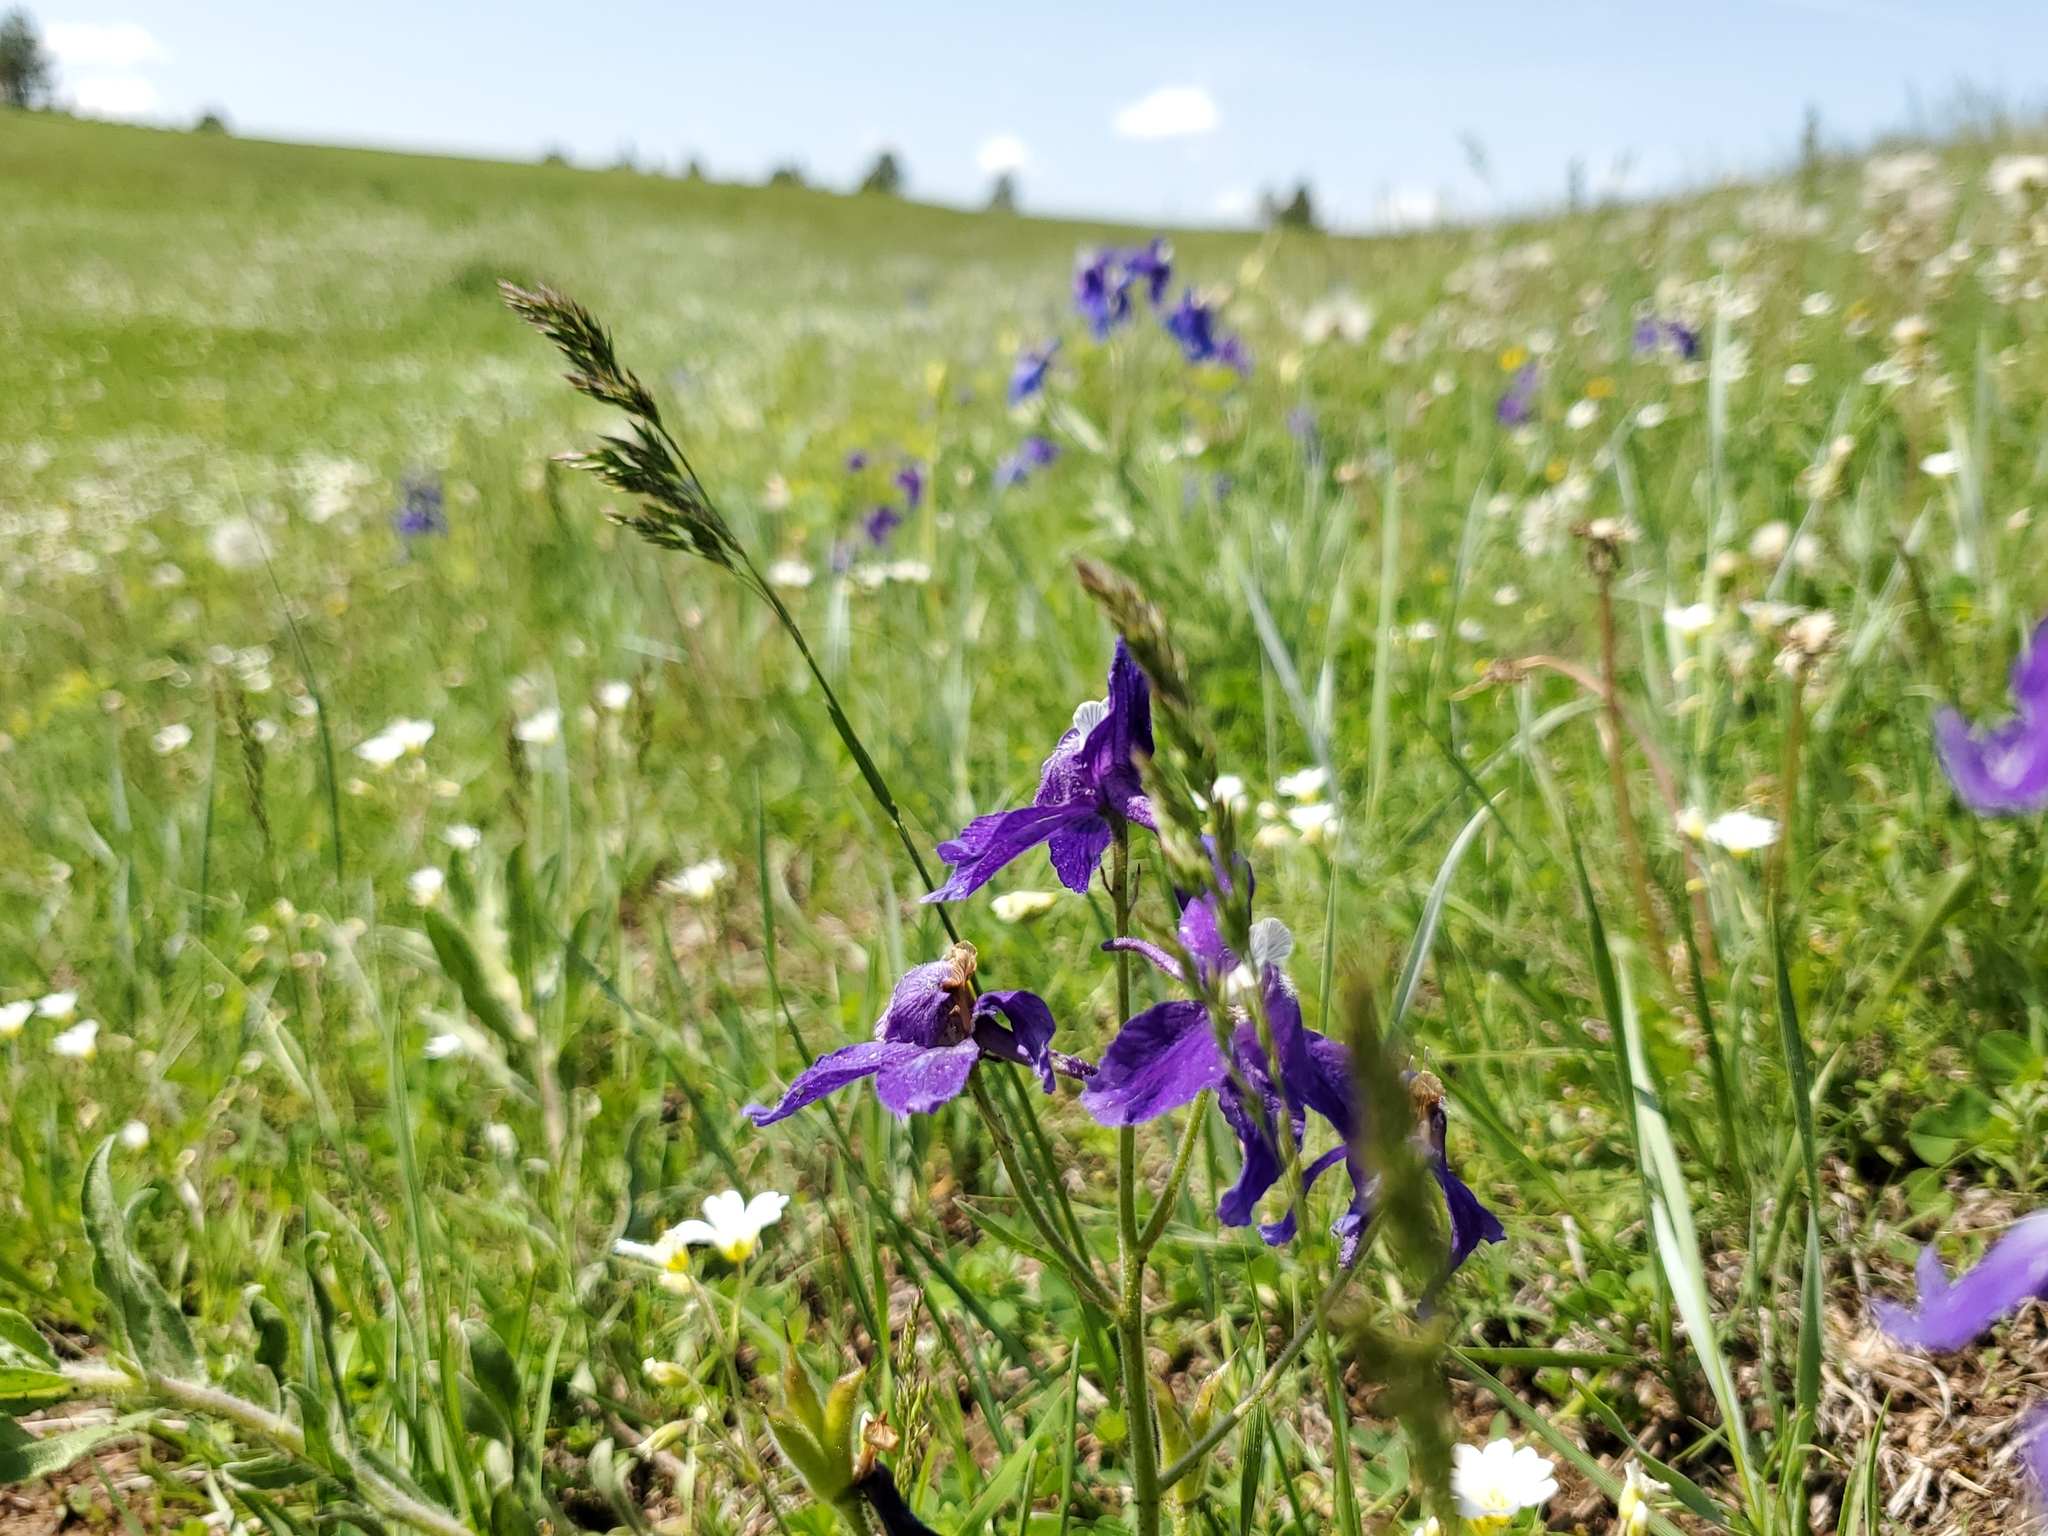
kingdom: Plantae
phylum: Tracheophyta
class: Magnoliopsida
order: Ranunculales
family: Ranunculaceae
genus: Delphinium
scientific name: Delphinium bicolor
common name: Low larkspur
